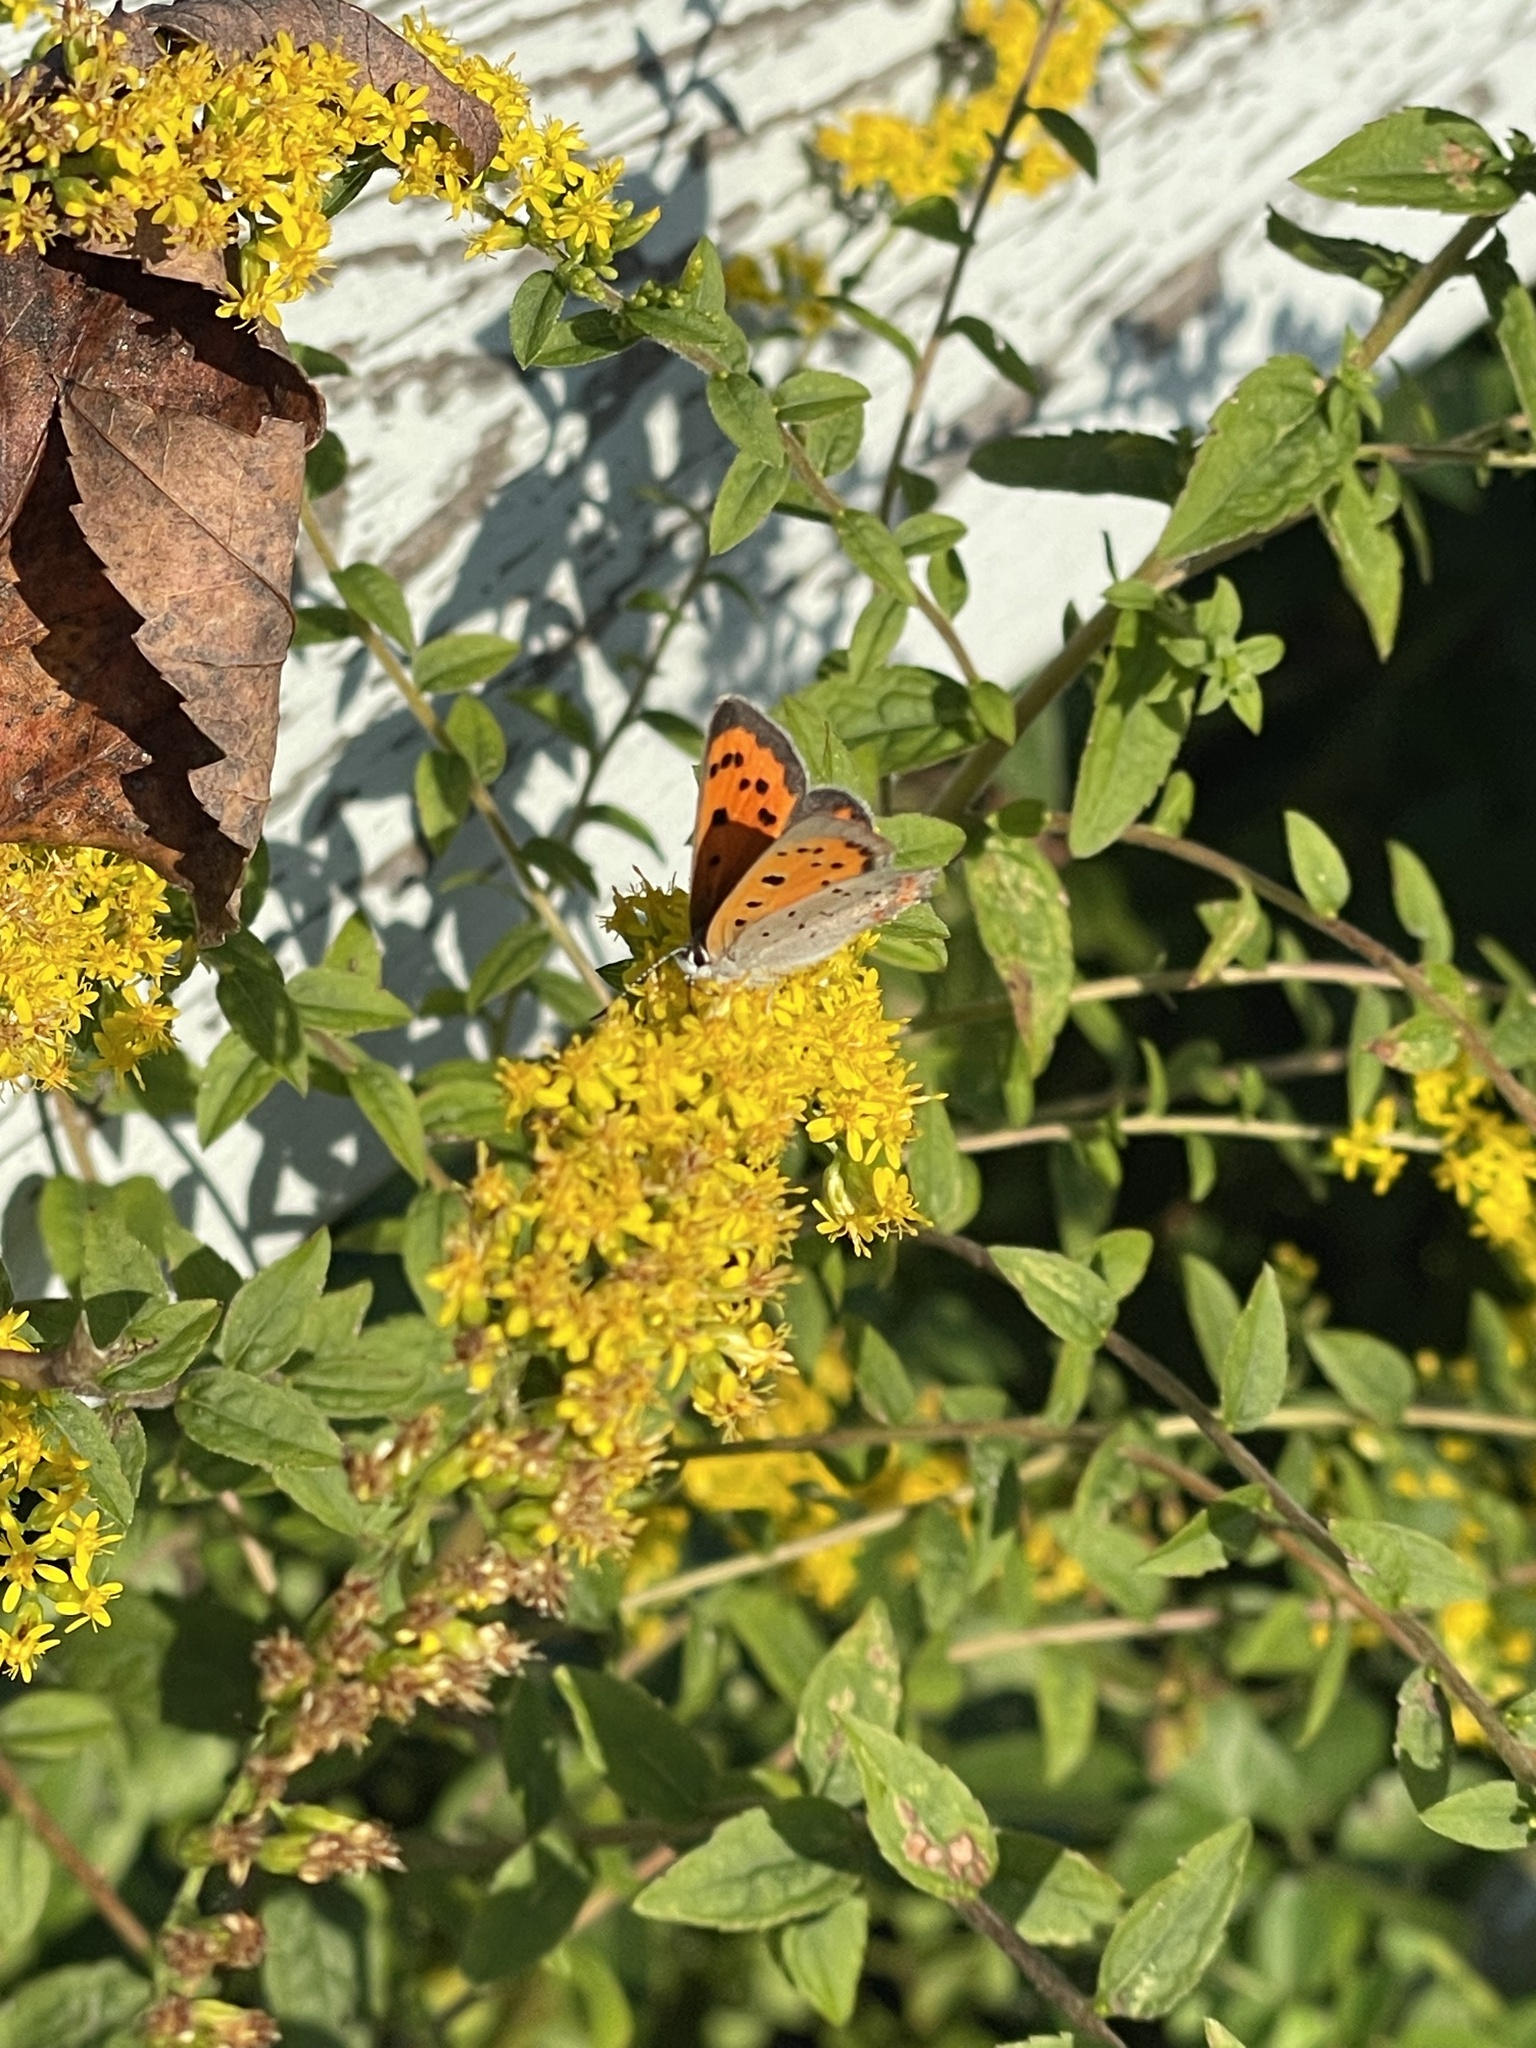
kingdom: Animalia
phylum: Arthropoda
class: Insecta
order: Lepidoptera
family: Lycaenidae
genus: Lycaena
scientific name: Lycaena hypophlaeas
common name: American copper
